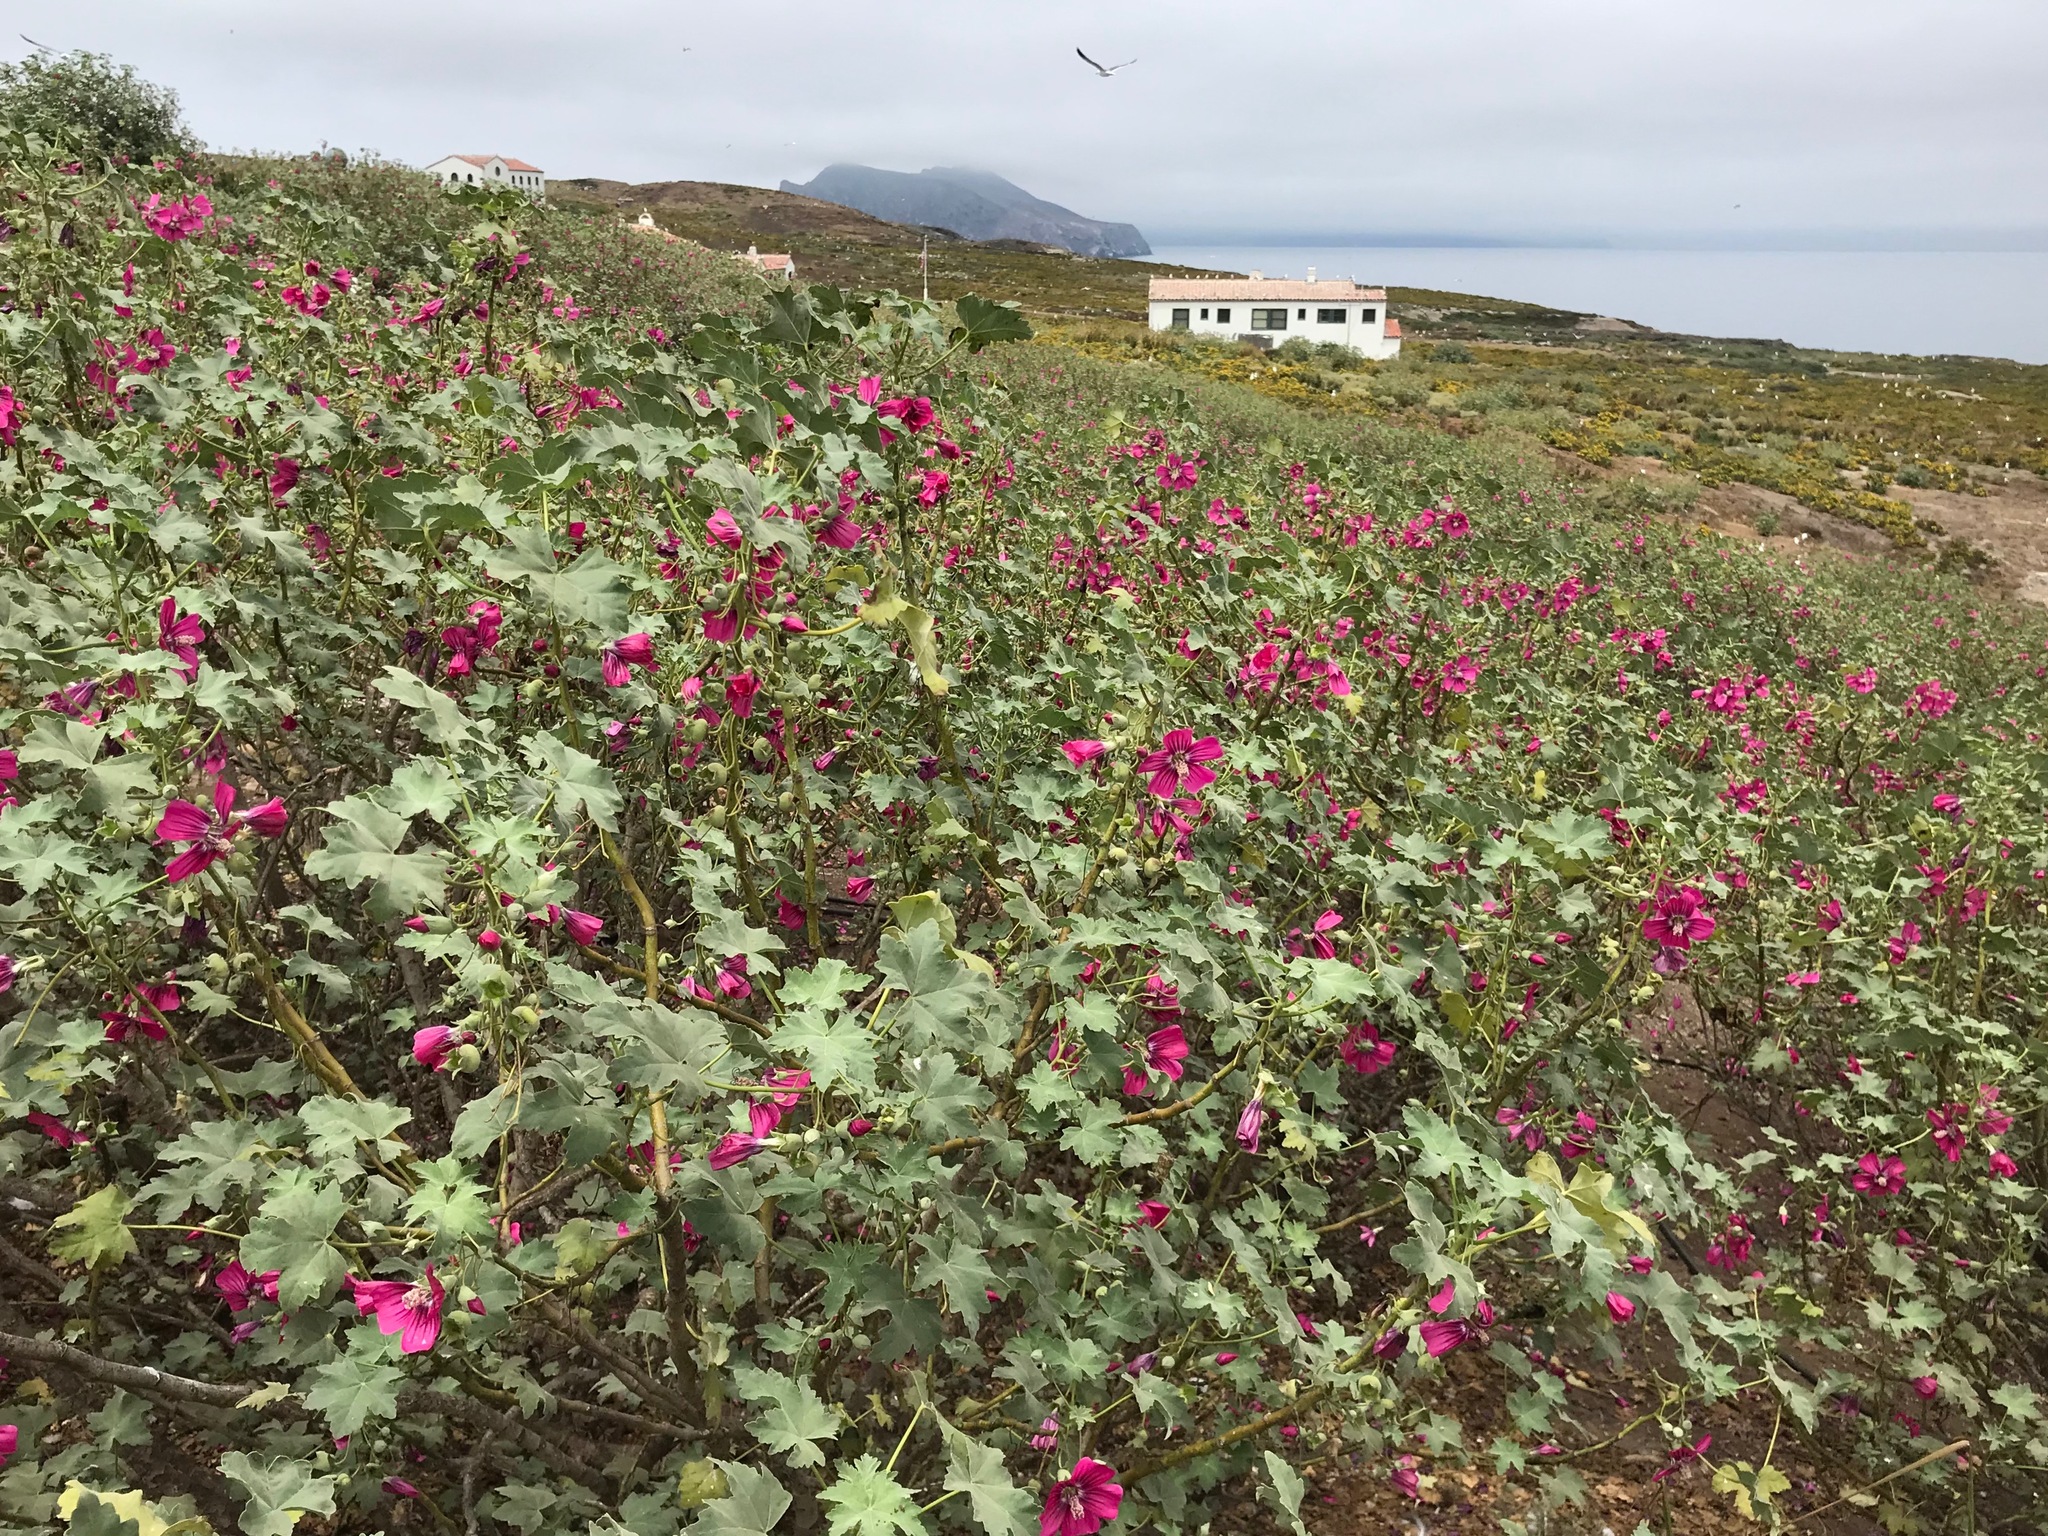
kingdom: Plantae
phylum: Tracheophyta
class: Magnoliopsida
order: Malvales
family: Malvaceae
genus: Malva
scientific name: Malva assurgentiflora
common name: Island mallow
